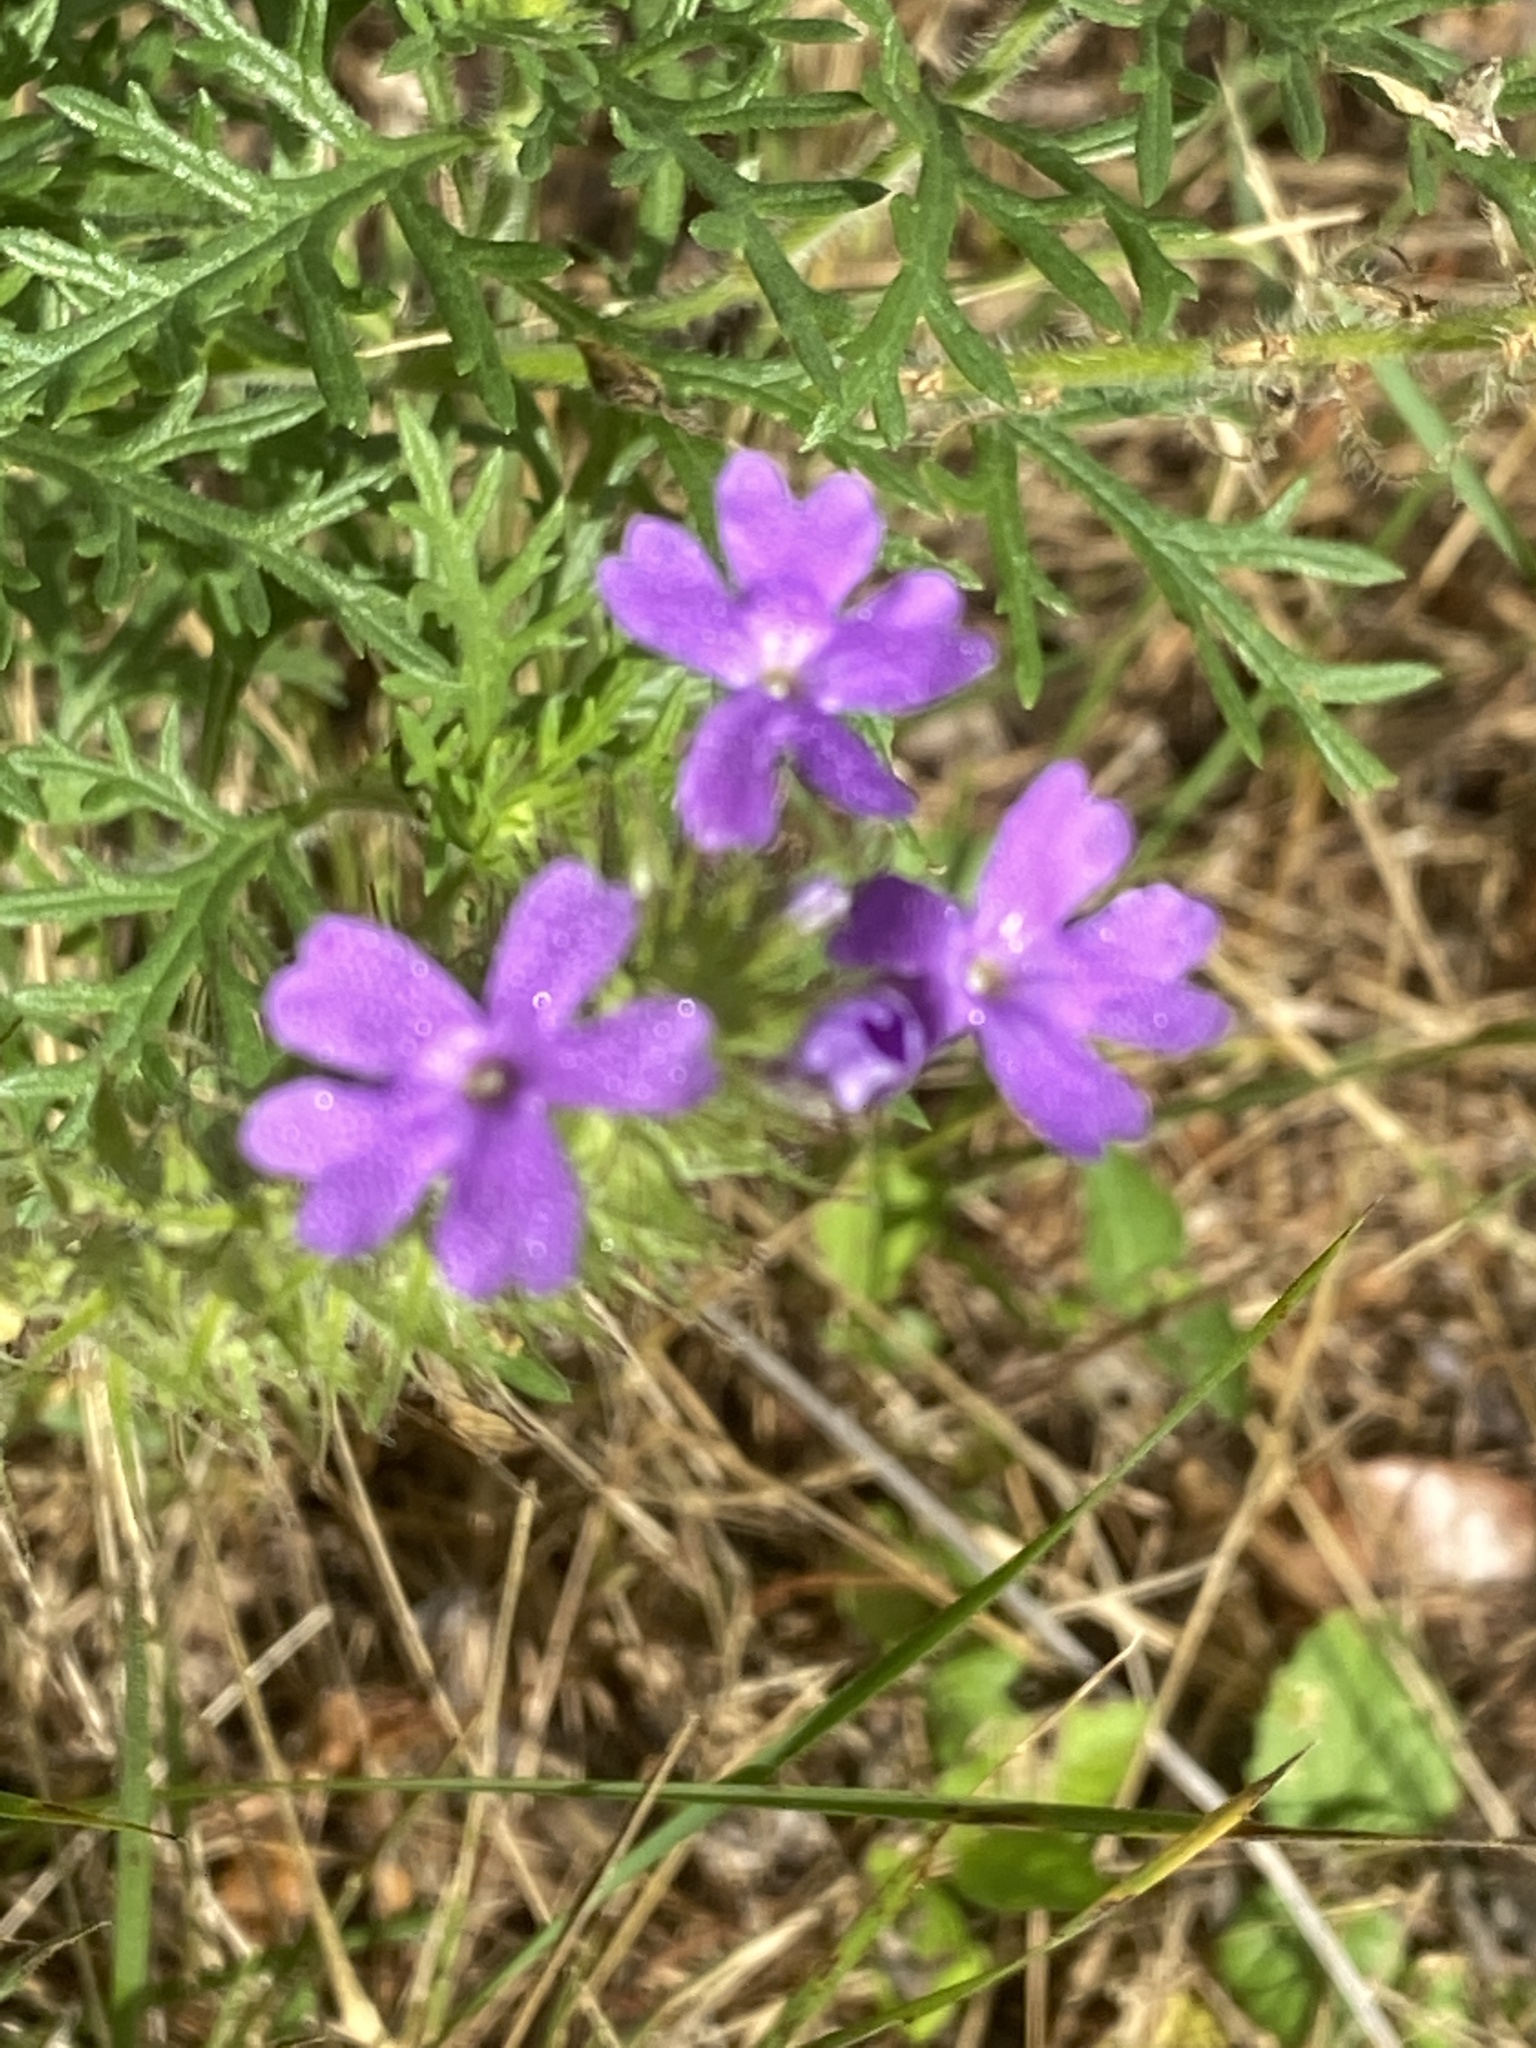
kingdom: Plantae
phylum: Tracheophyta
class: Magnoliopsida
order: Lamiales
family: Verbenaceae
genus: Verbena
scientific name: Verbena bipinnatifida
